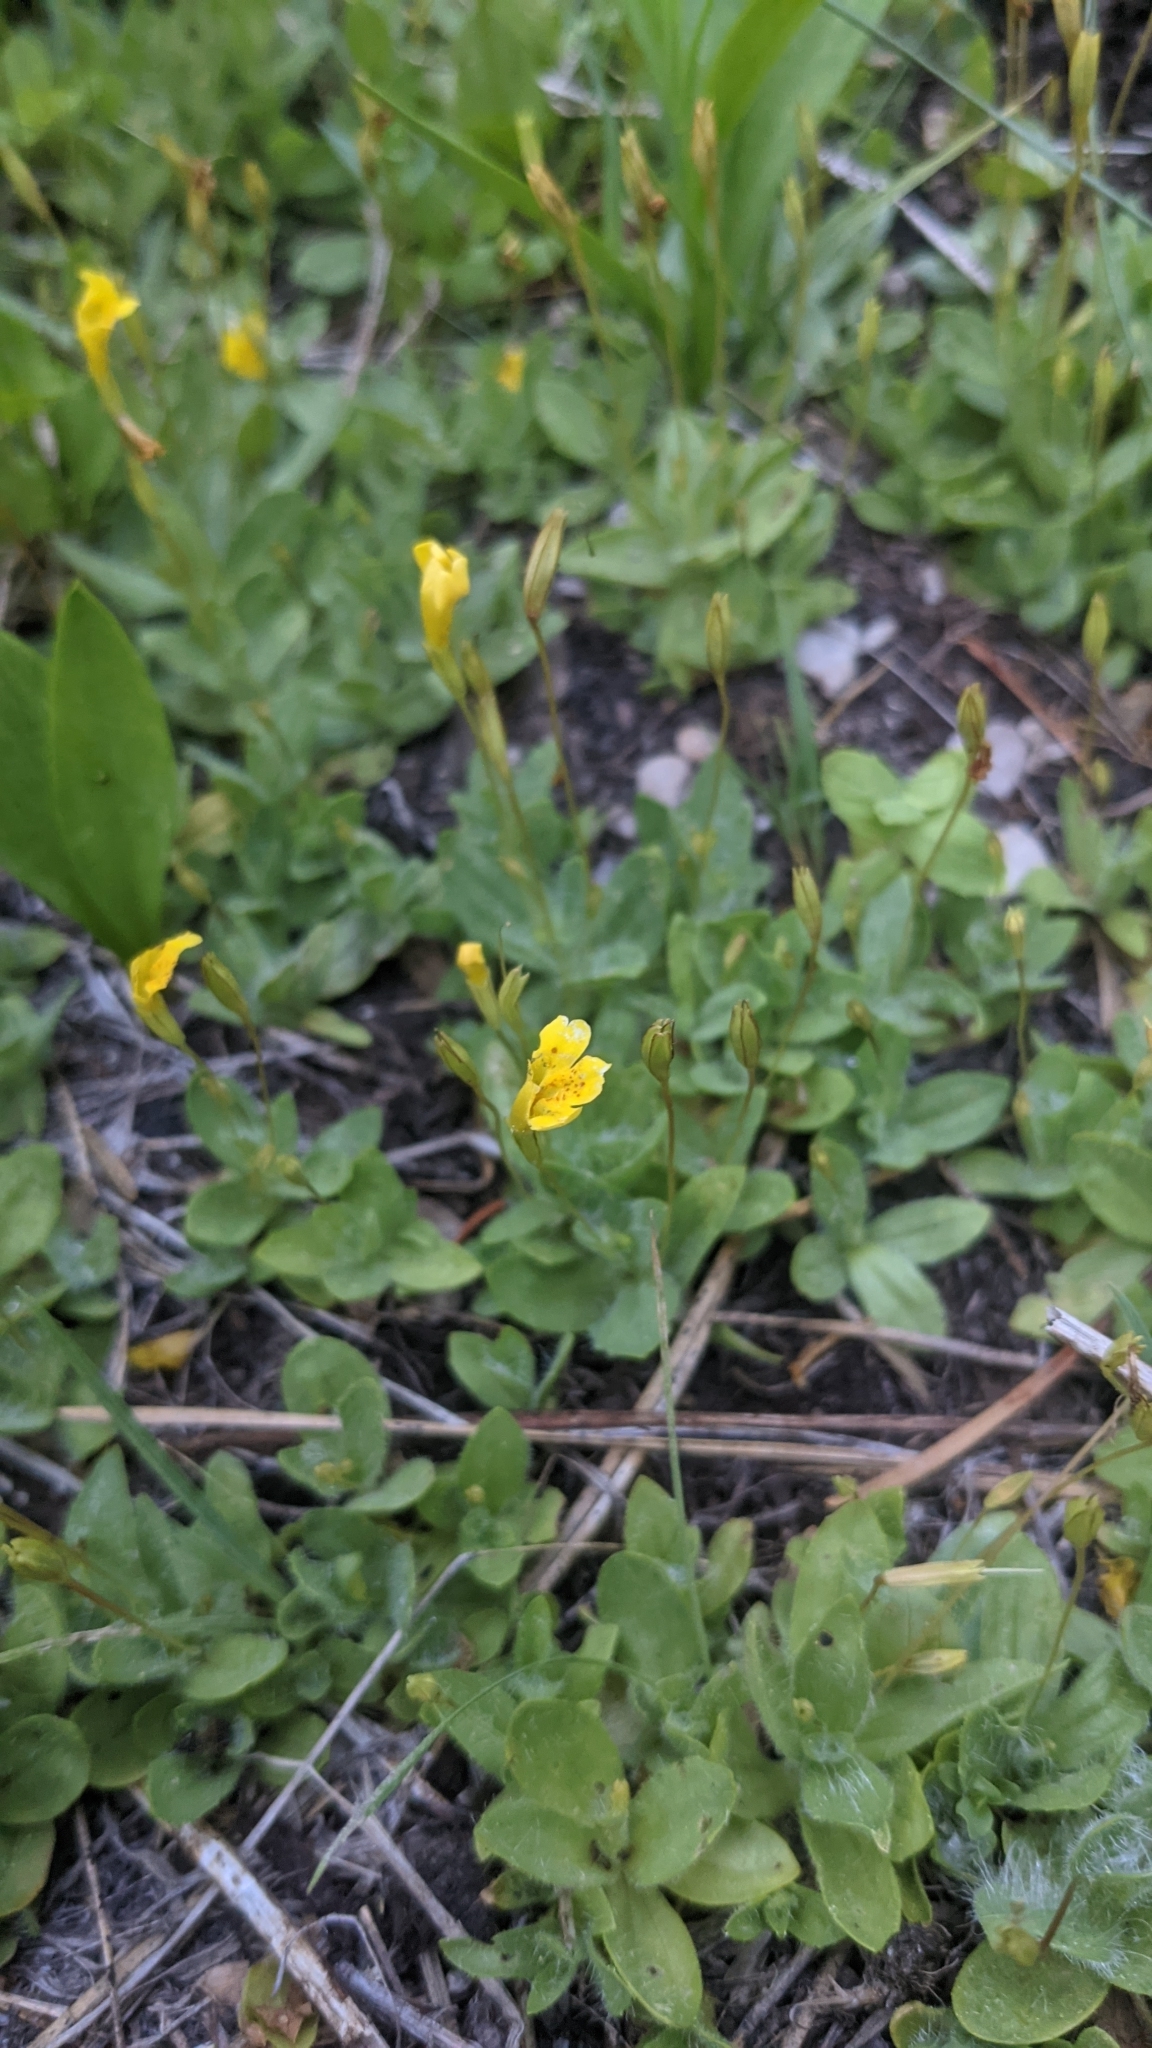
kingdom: Plantae
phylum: Tracheophyta
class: Magnoliopsida
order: Lamiales
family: Phrymaceae
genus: Erythranthe
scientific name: Erythranthe primuloides
